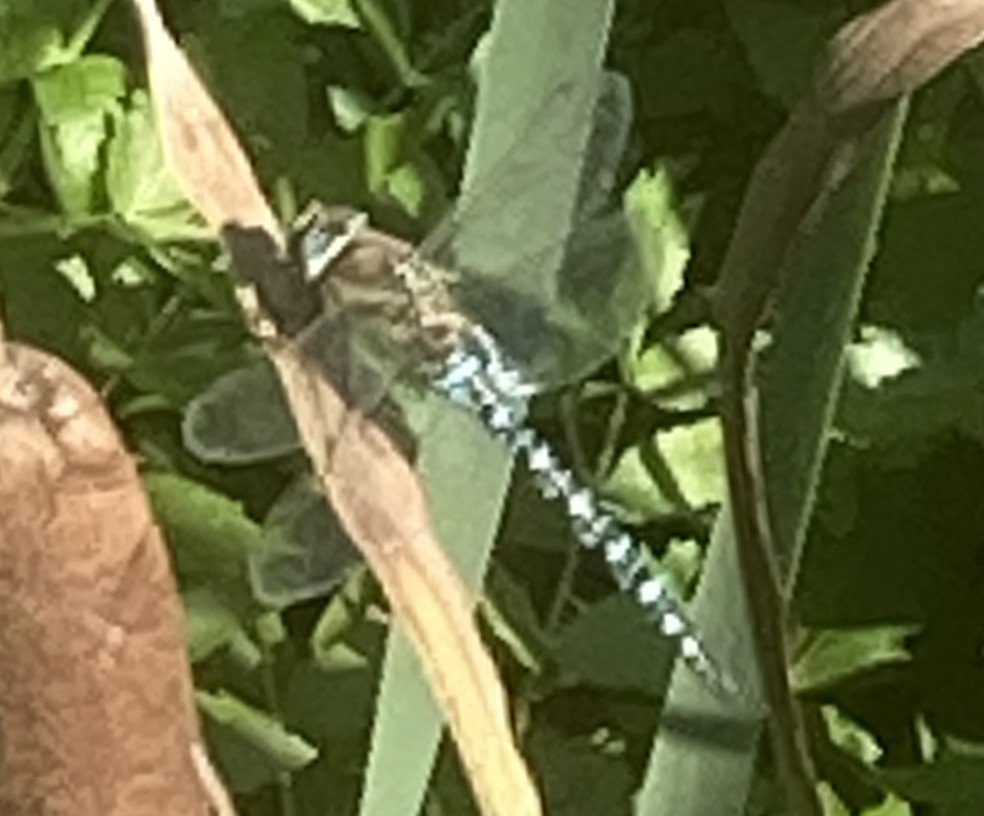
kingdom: Animalia
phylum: Arthropoda
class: Insecta
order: Odonata
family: Aeshnidae
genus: Aeshna
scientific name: Aeshna mixta
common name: Migrant hawker
